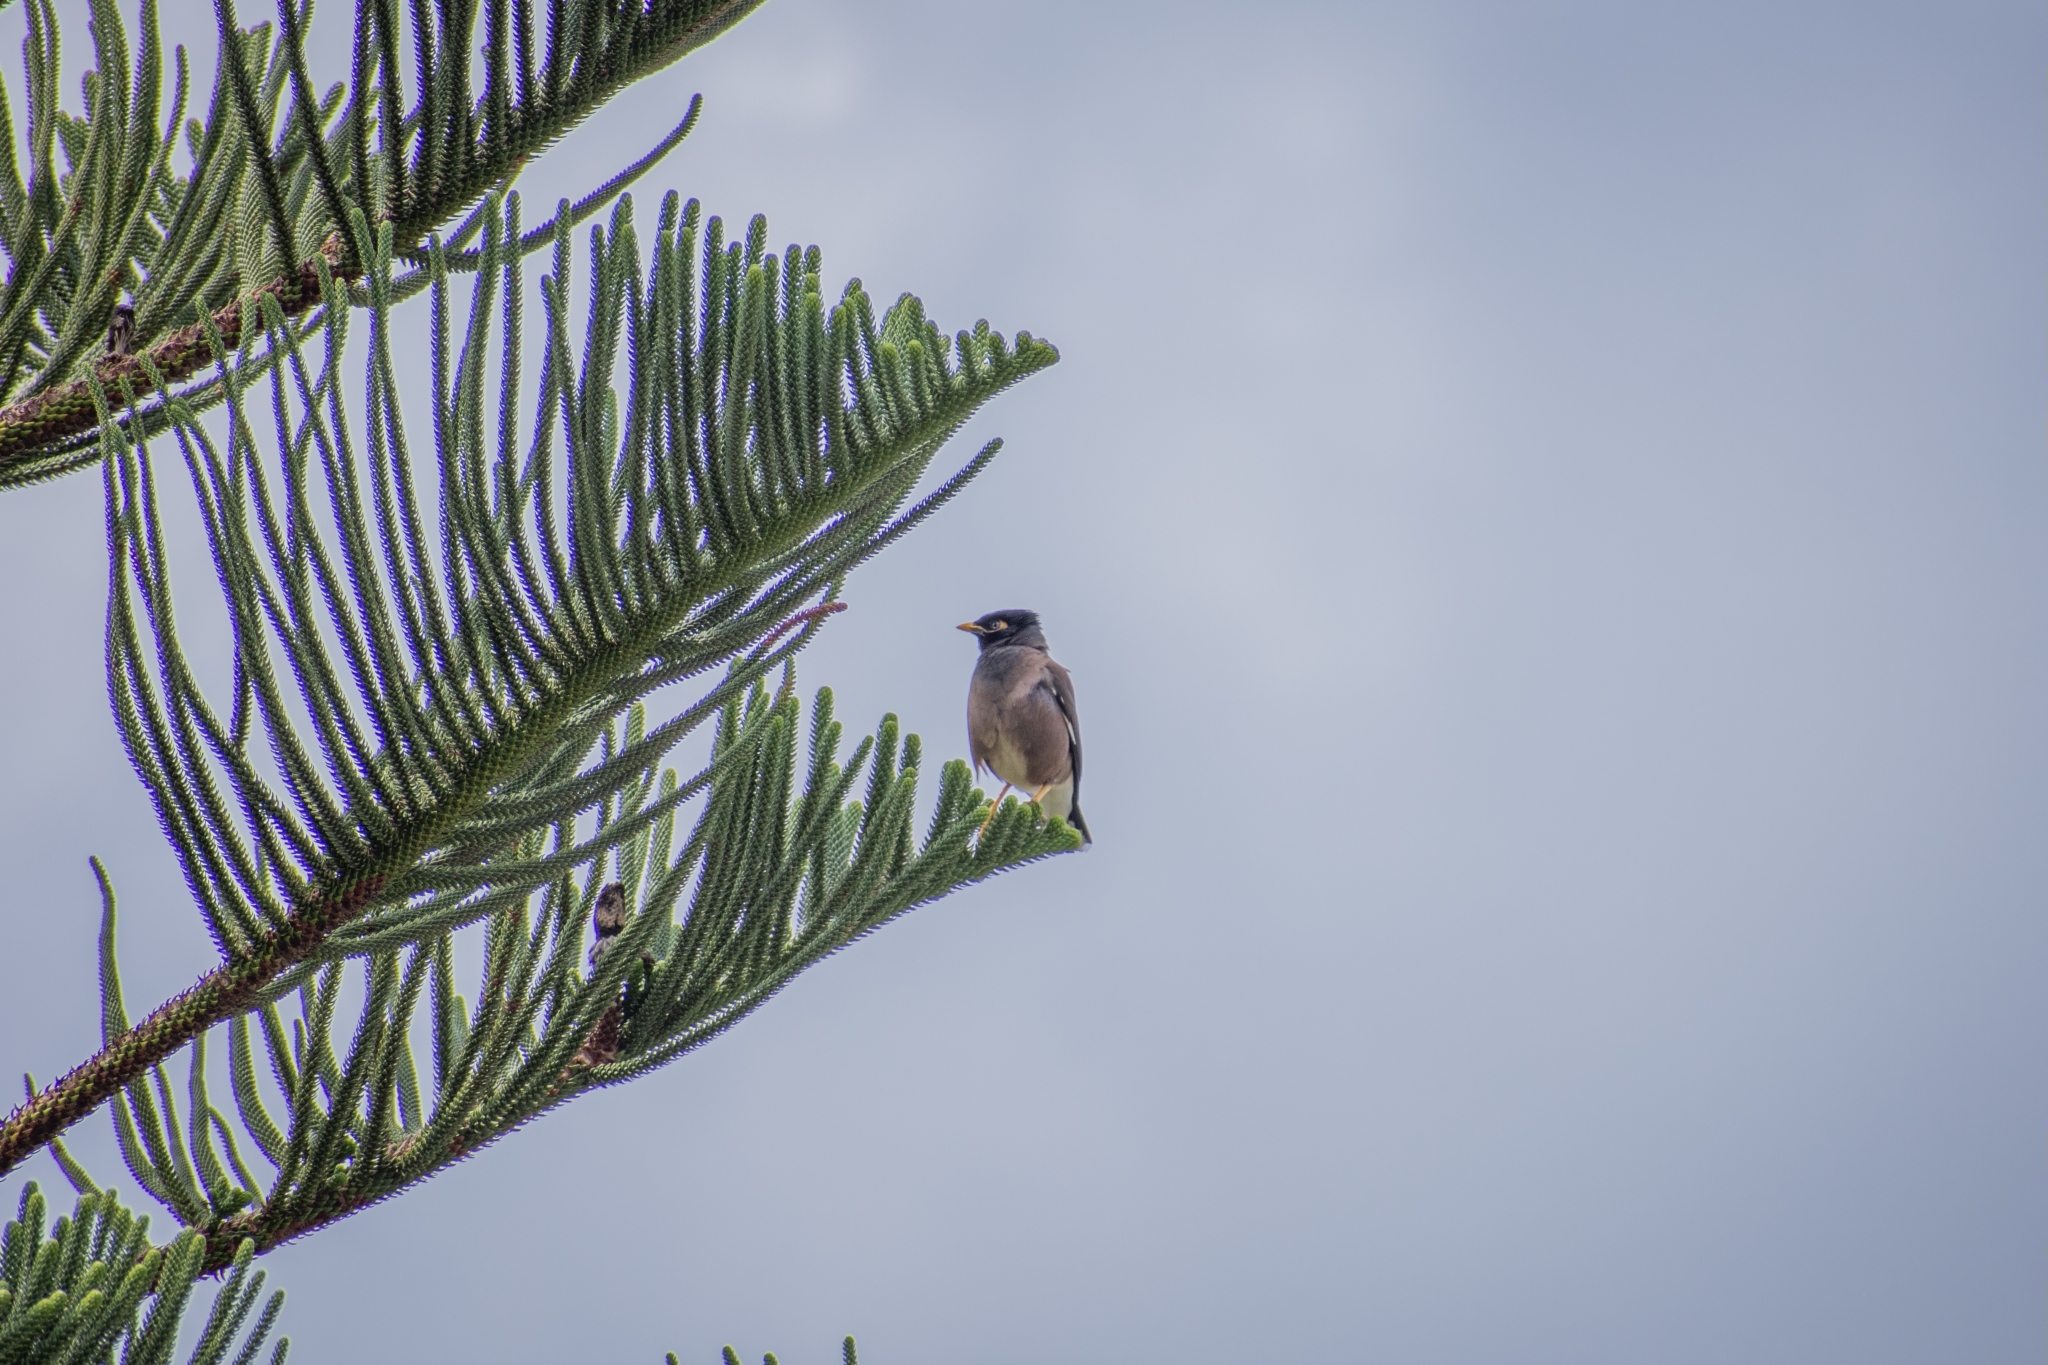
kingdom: Animalia
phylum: Chordata
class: Aves
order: Passeriformes
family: Sturnidae
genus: Acridotheres
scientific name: Acridotheres tristis
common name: Common myna
